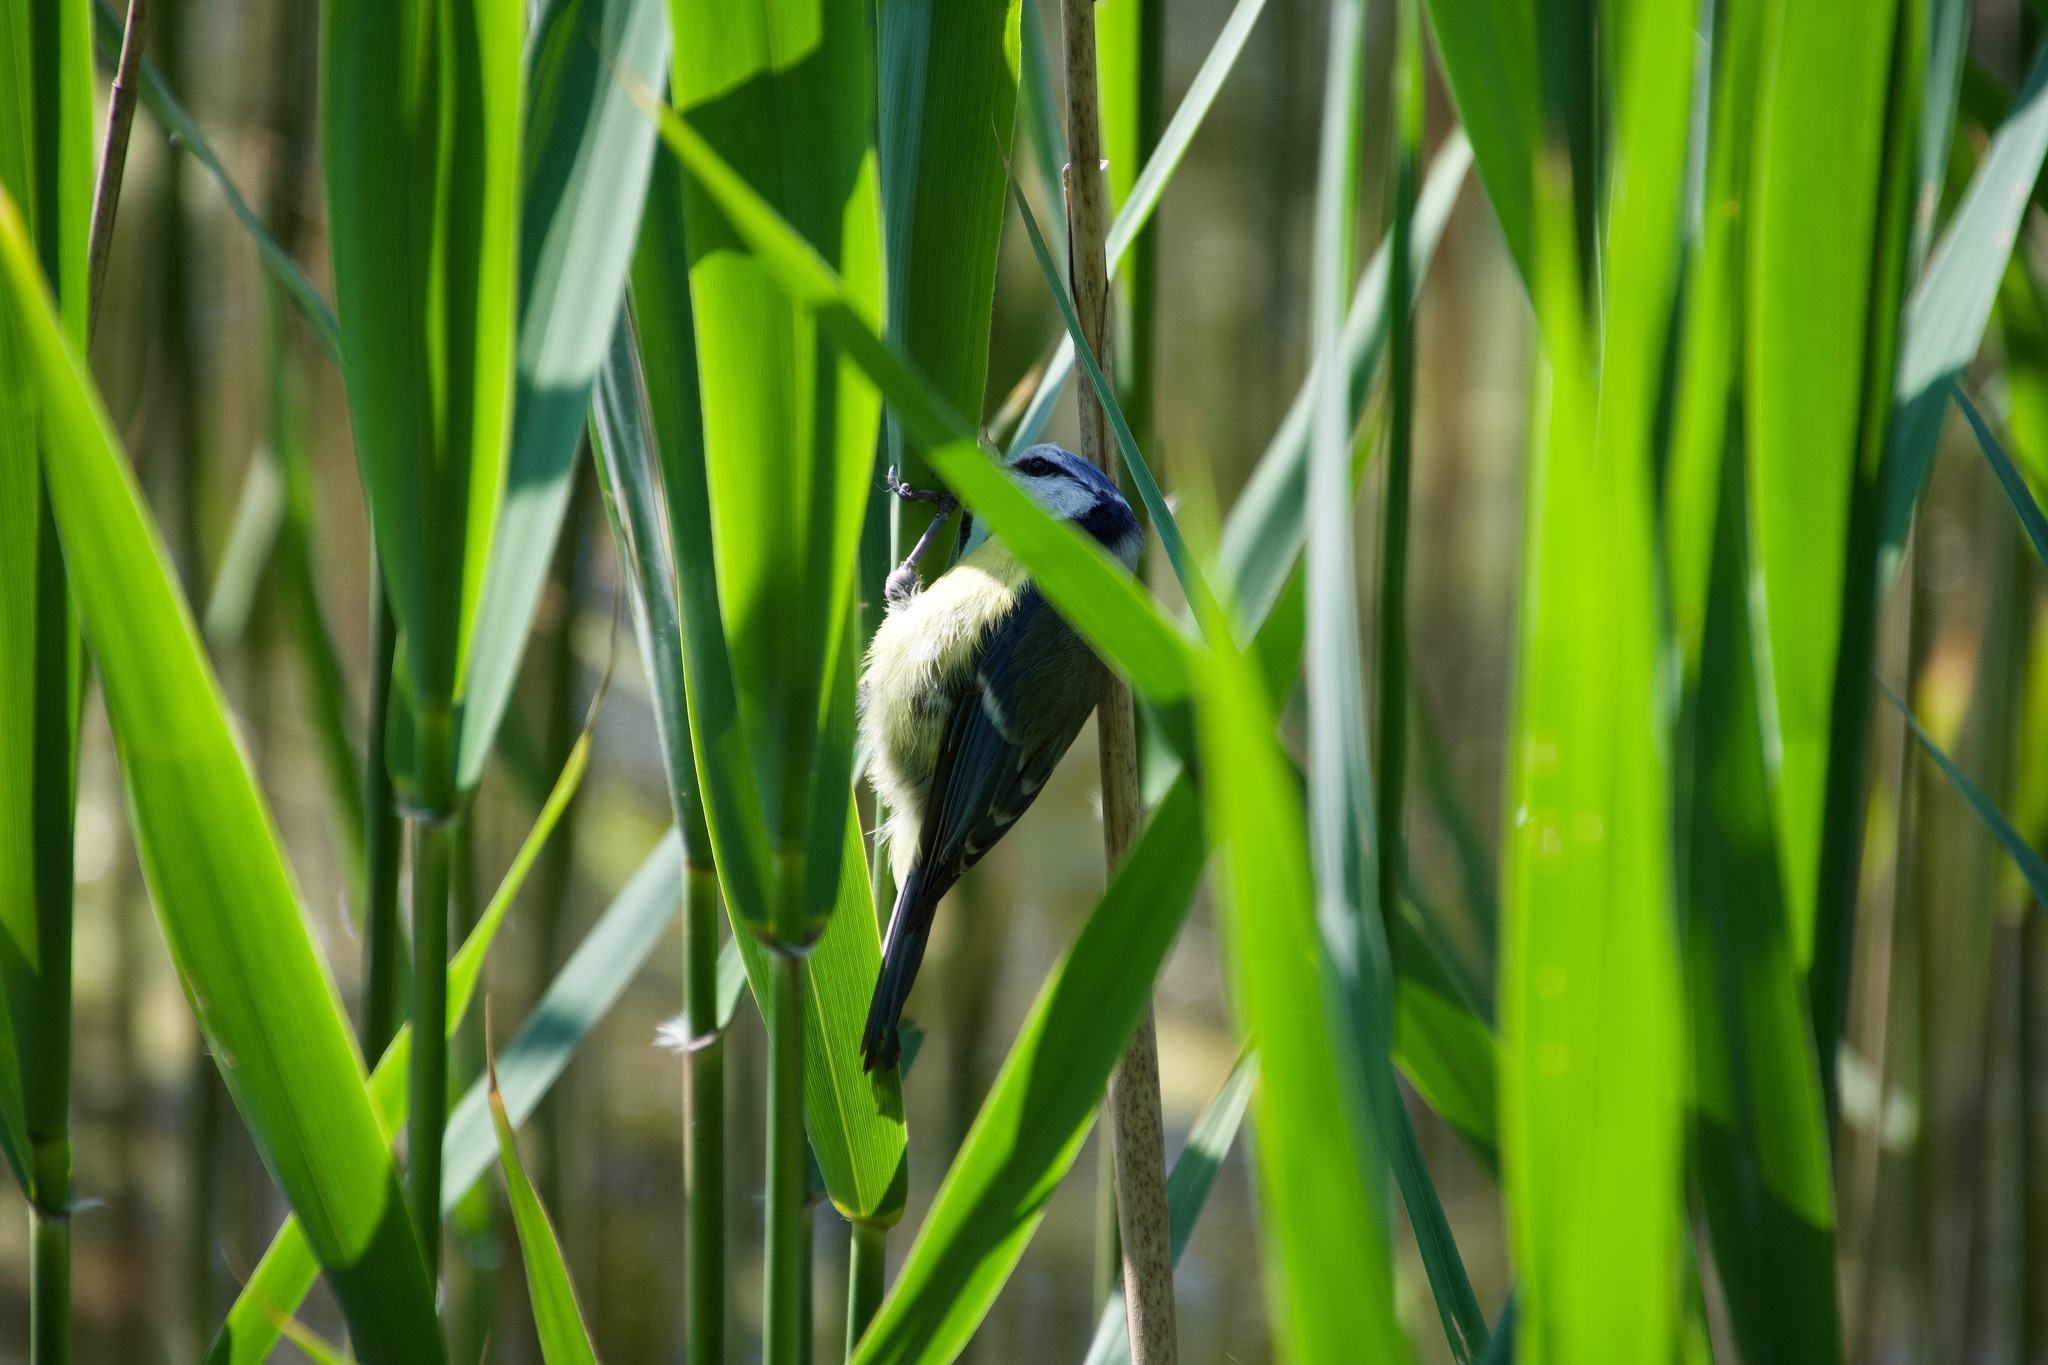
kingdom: Animalia
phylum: Chordata
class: Aves
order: Passeriformes
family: Paridae
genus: Cyanistes
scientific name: Cyanistes caeruleus
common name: Eurasian blue tit
